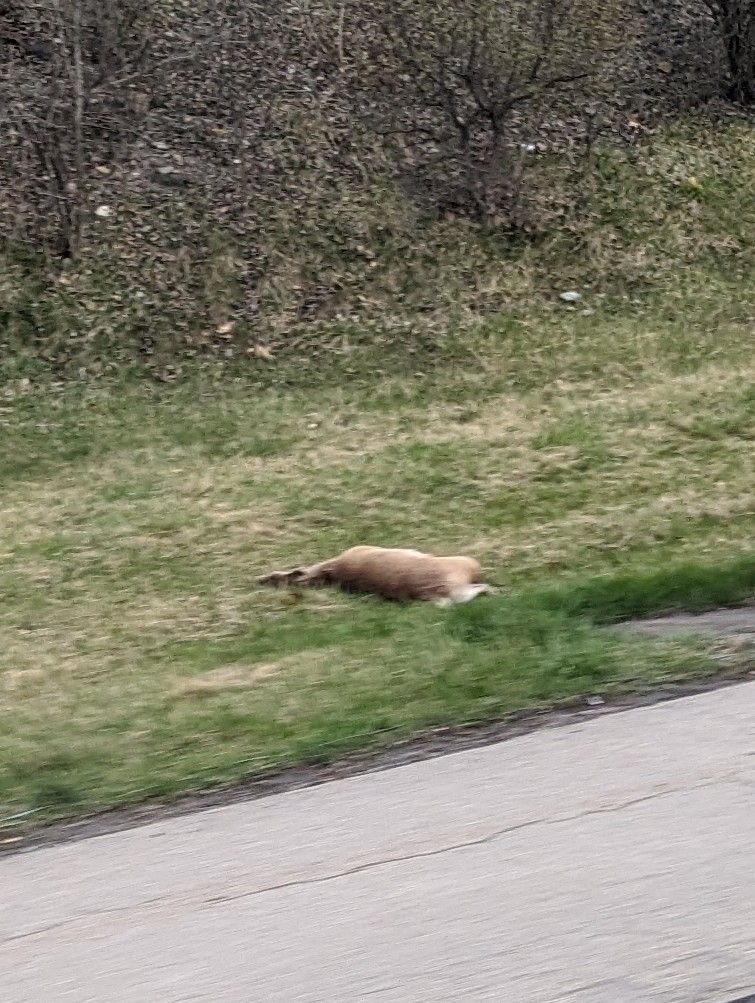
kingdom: Animalia
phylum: Chordata
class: Mammalia
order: Artiodactyla
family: Cervidae
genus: Odocoileus
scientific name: Odocoileus virginianus
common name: White-tailed deer
